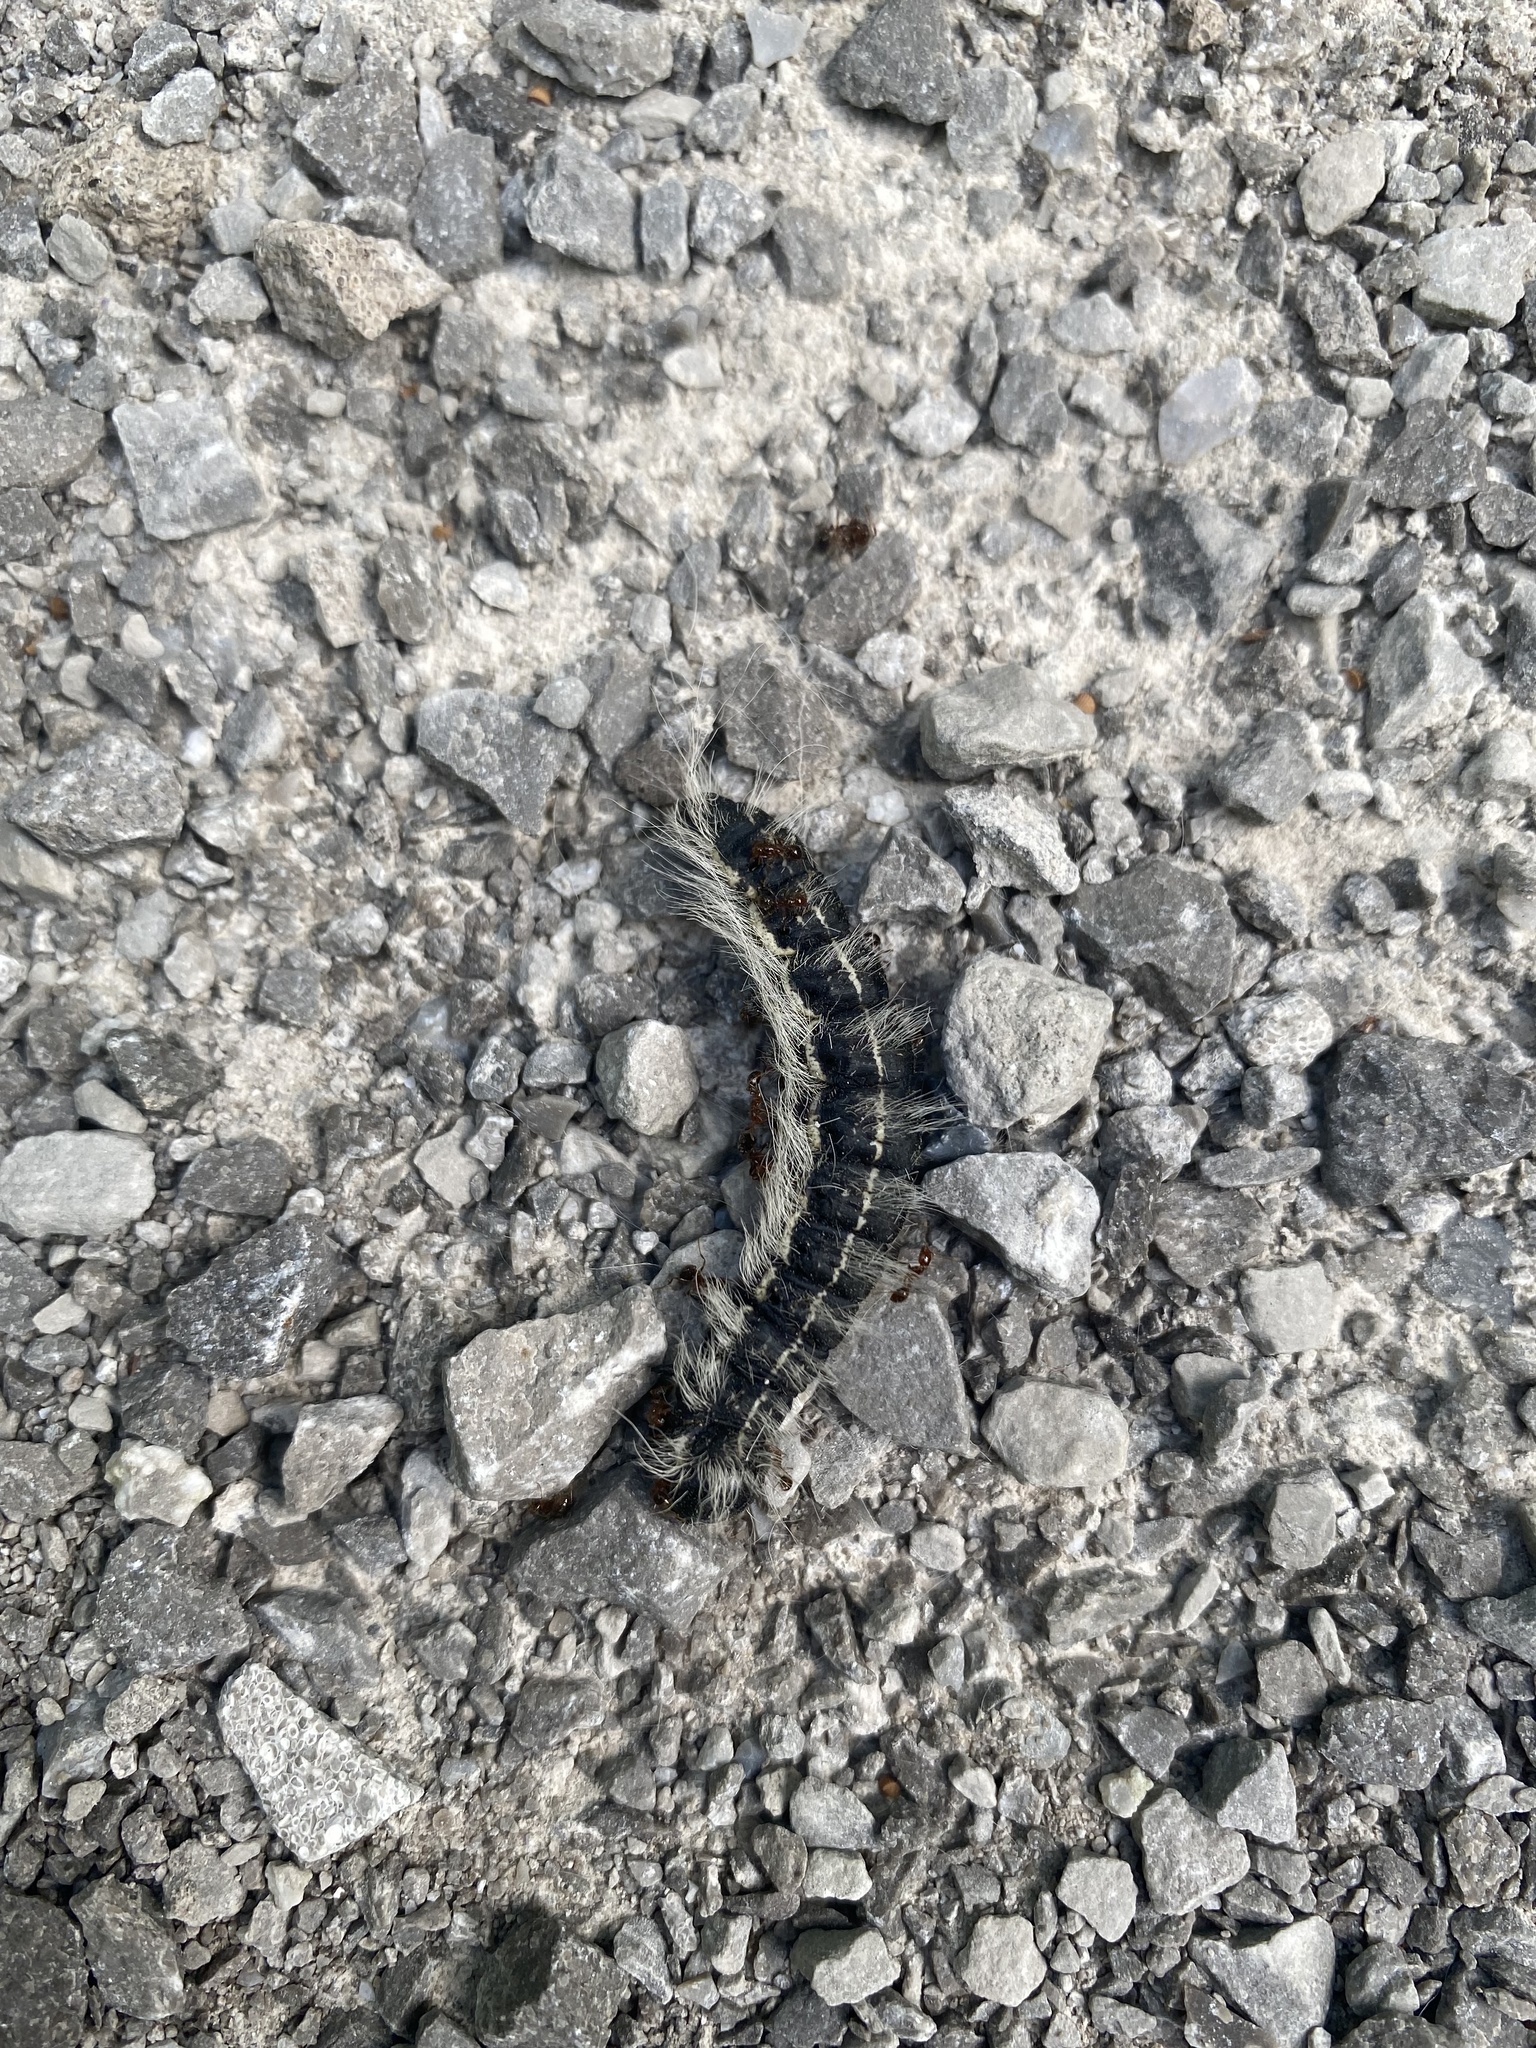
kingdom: Animalia
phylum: Arthropoda
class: Insecta
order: Lepidoptera
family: Notodontidae
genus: Datana
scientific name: Datana integerrima
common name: Walnut caterpillar
